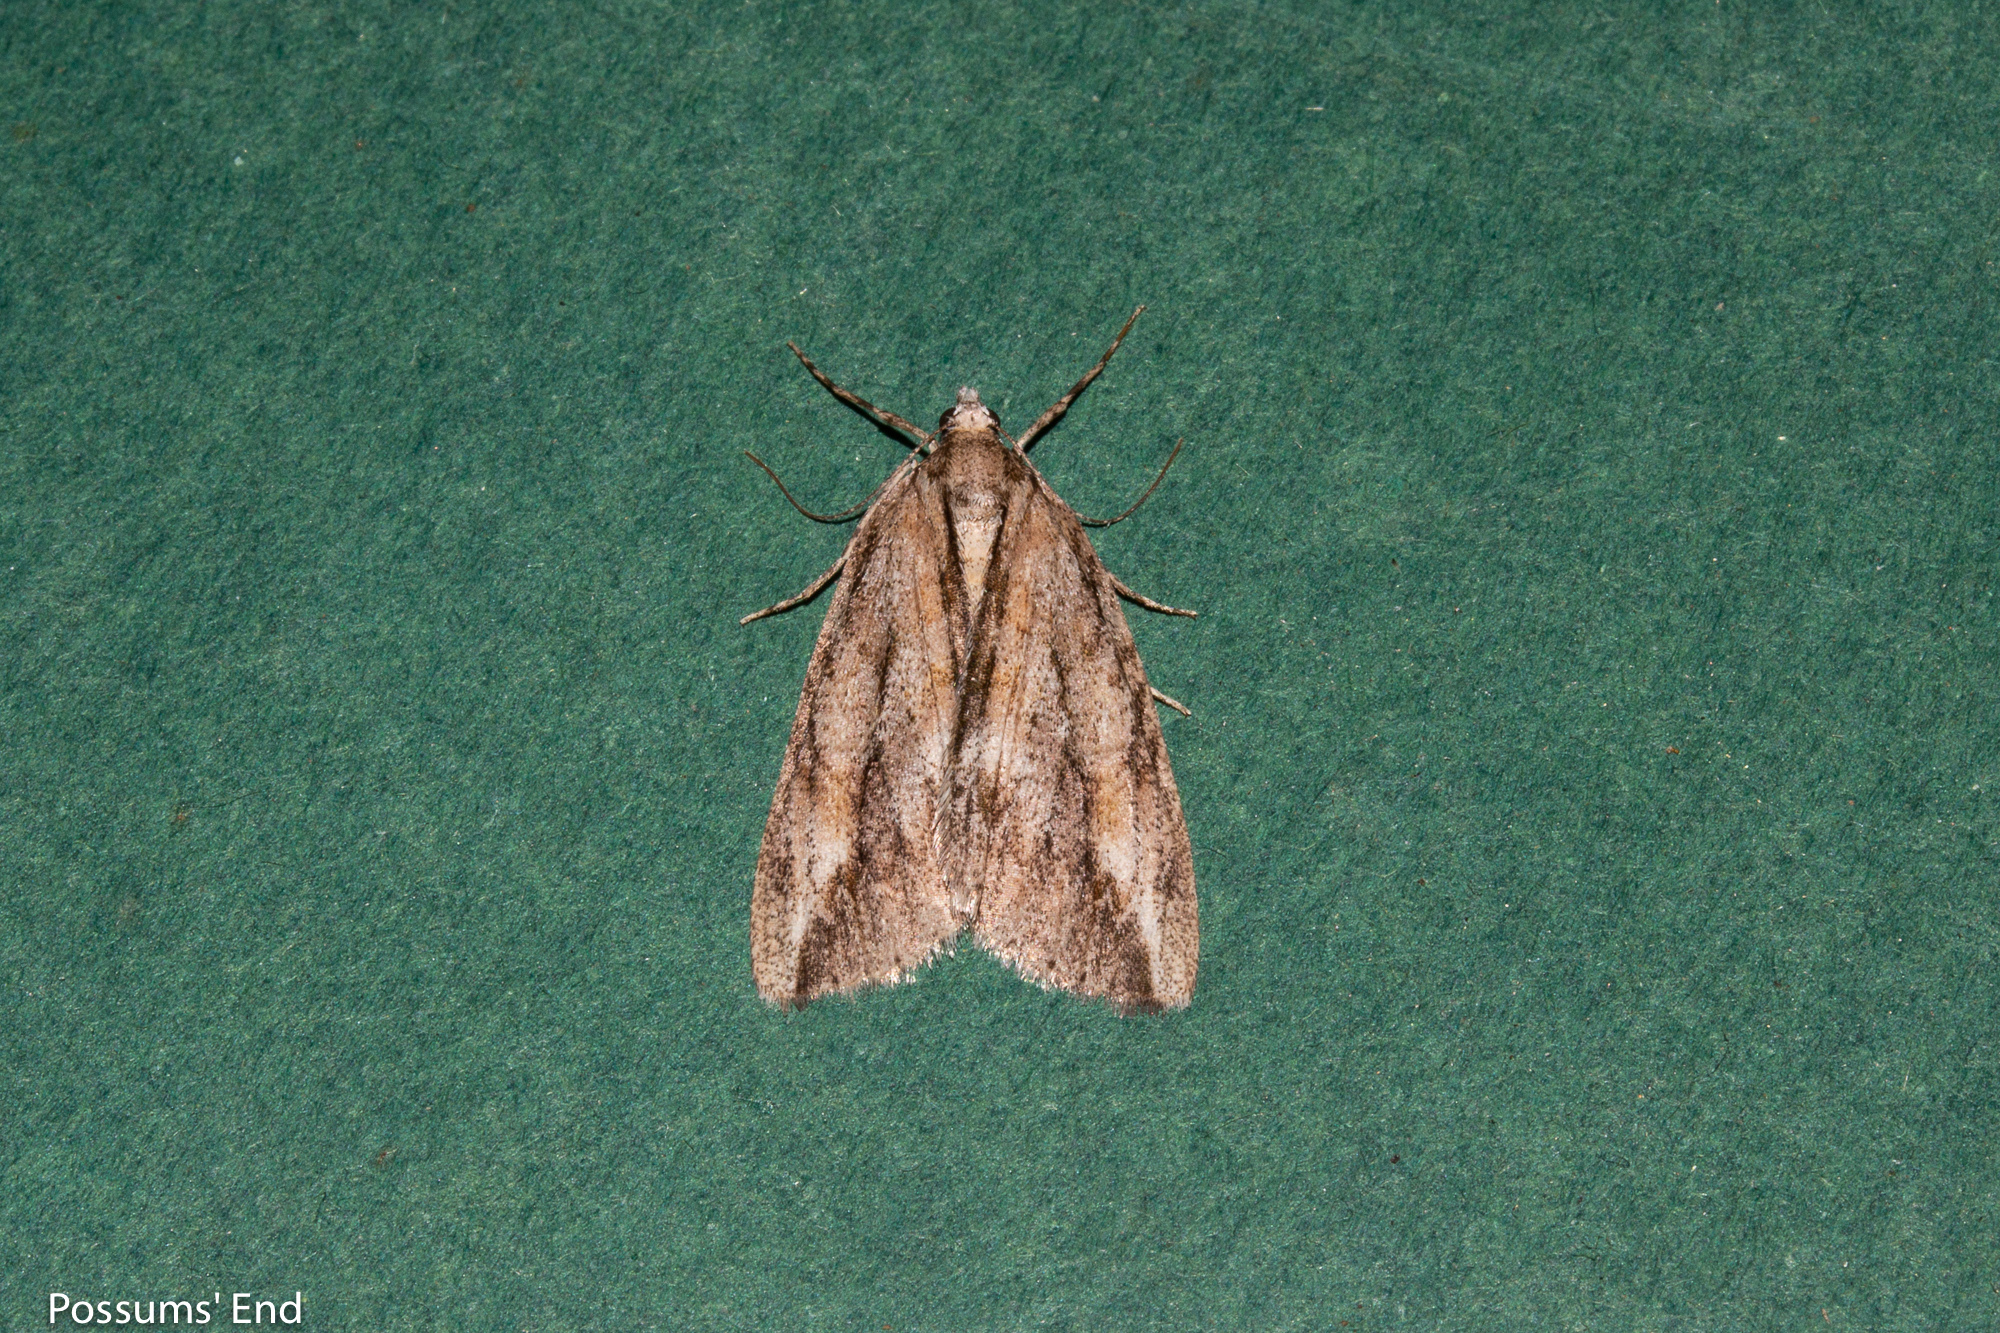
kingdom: Animalia
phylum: Arthropoda
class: Insecta
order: Lepidoptera
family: Geometridae
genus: Pseudocoremia
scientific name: Pseudocoremia lupinata
